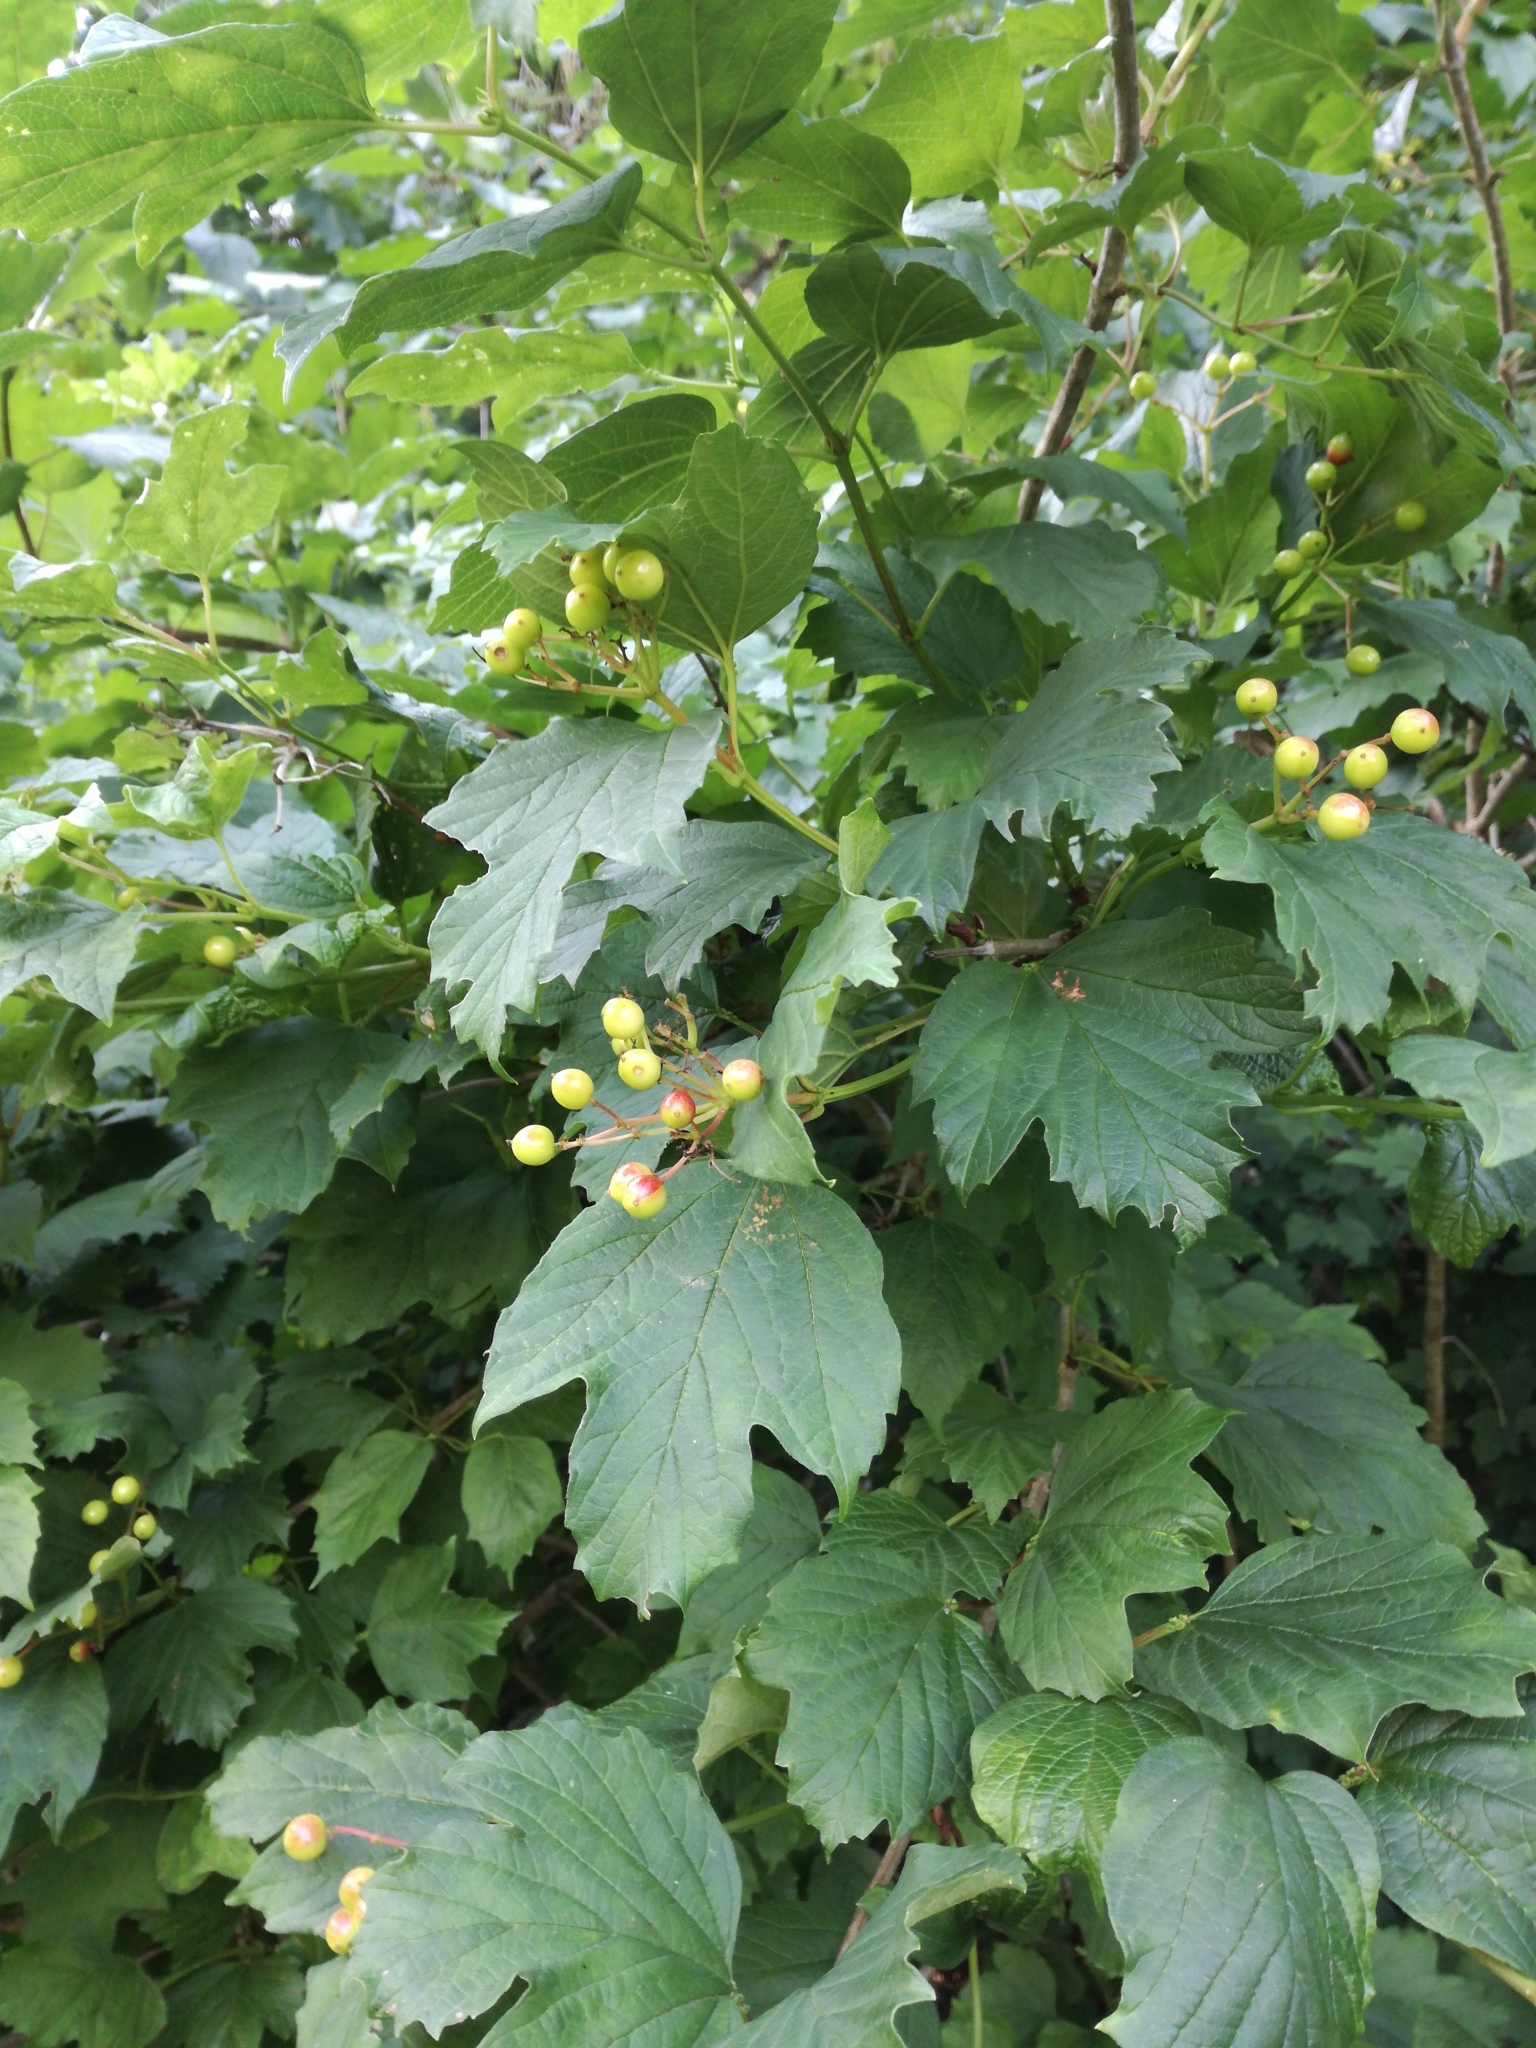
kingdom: Plantae
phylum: Tracheophyta
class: Magnoliopsida
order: Dipsacales
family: Viburnaceae
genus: Viburnum
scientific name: Viburnum opulus
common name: Guelder-rose
